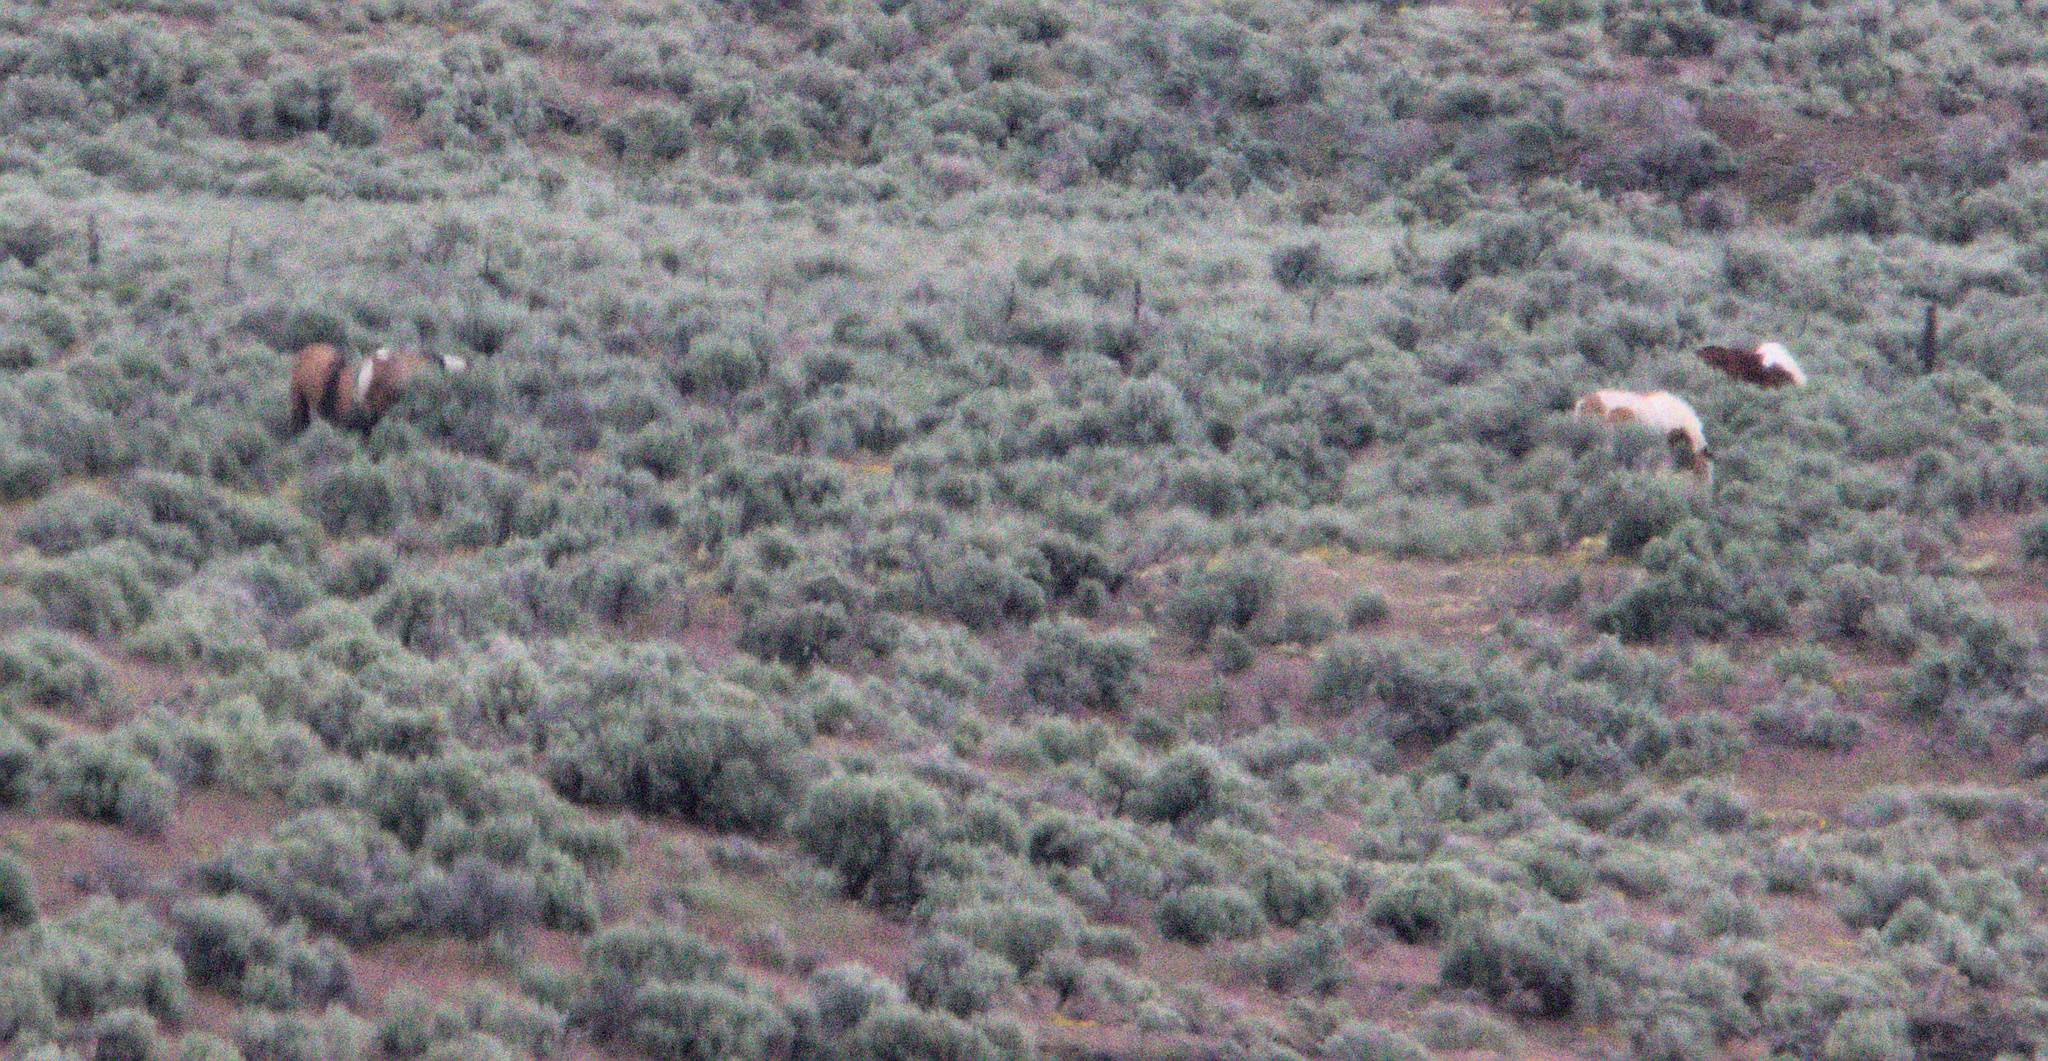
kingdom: Animalia
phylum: Chordata
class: Mammalia
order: Perissodactyla
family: Equidae
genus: Equus
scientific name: Equus caballus
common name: Horse
